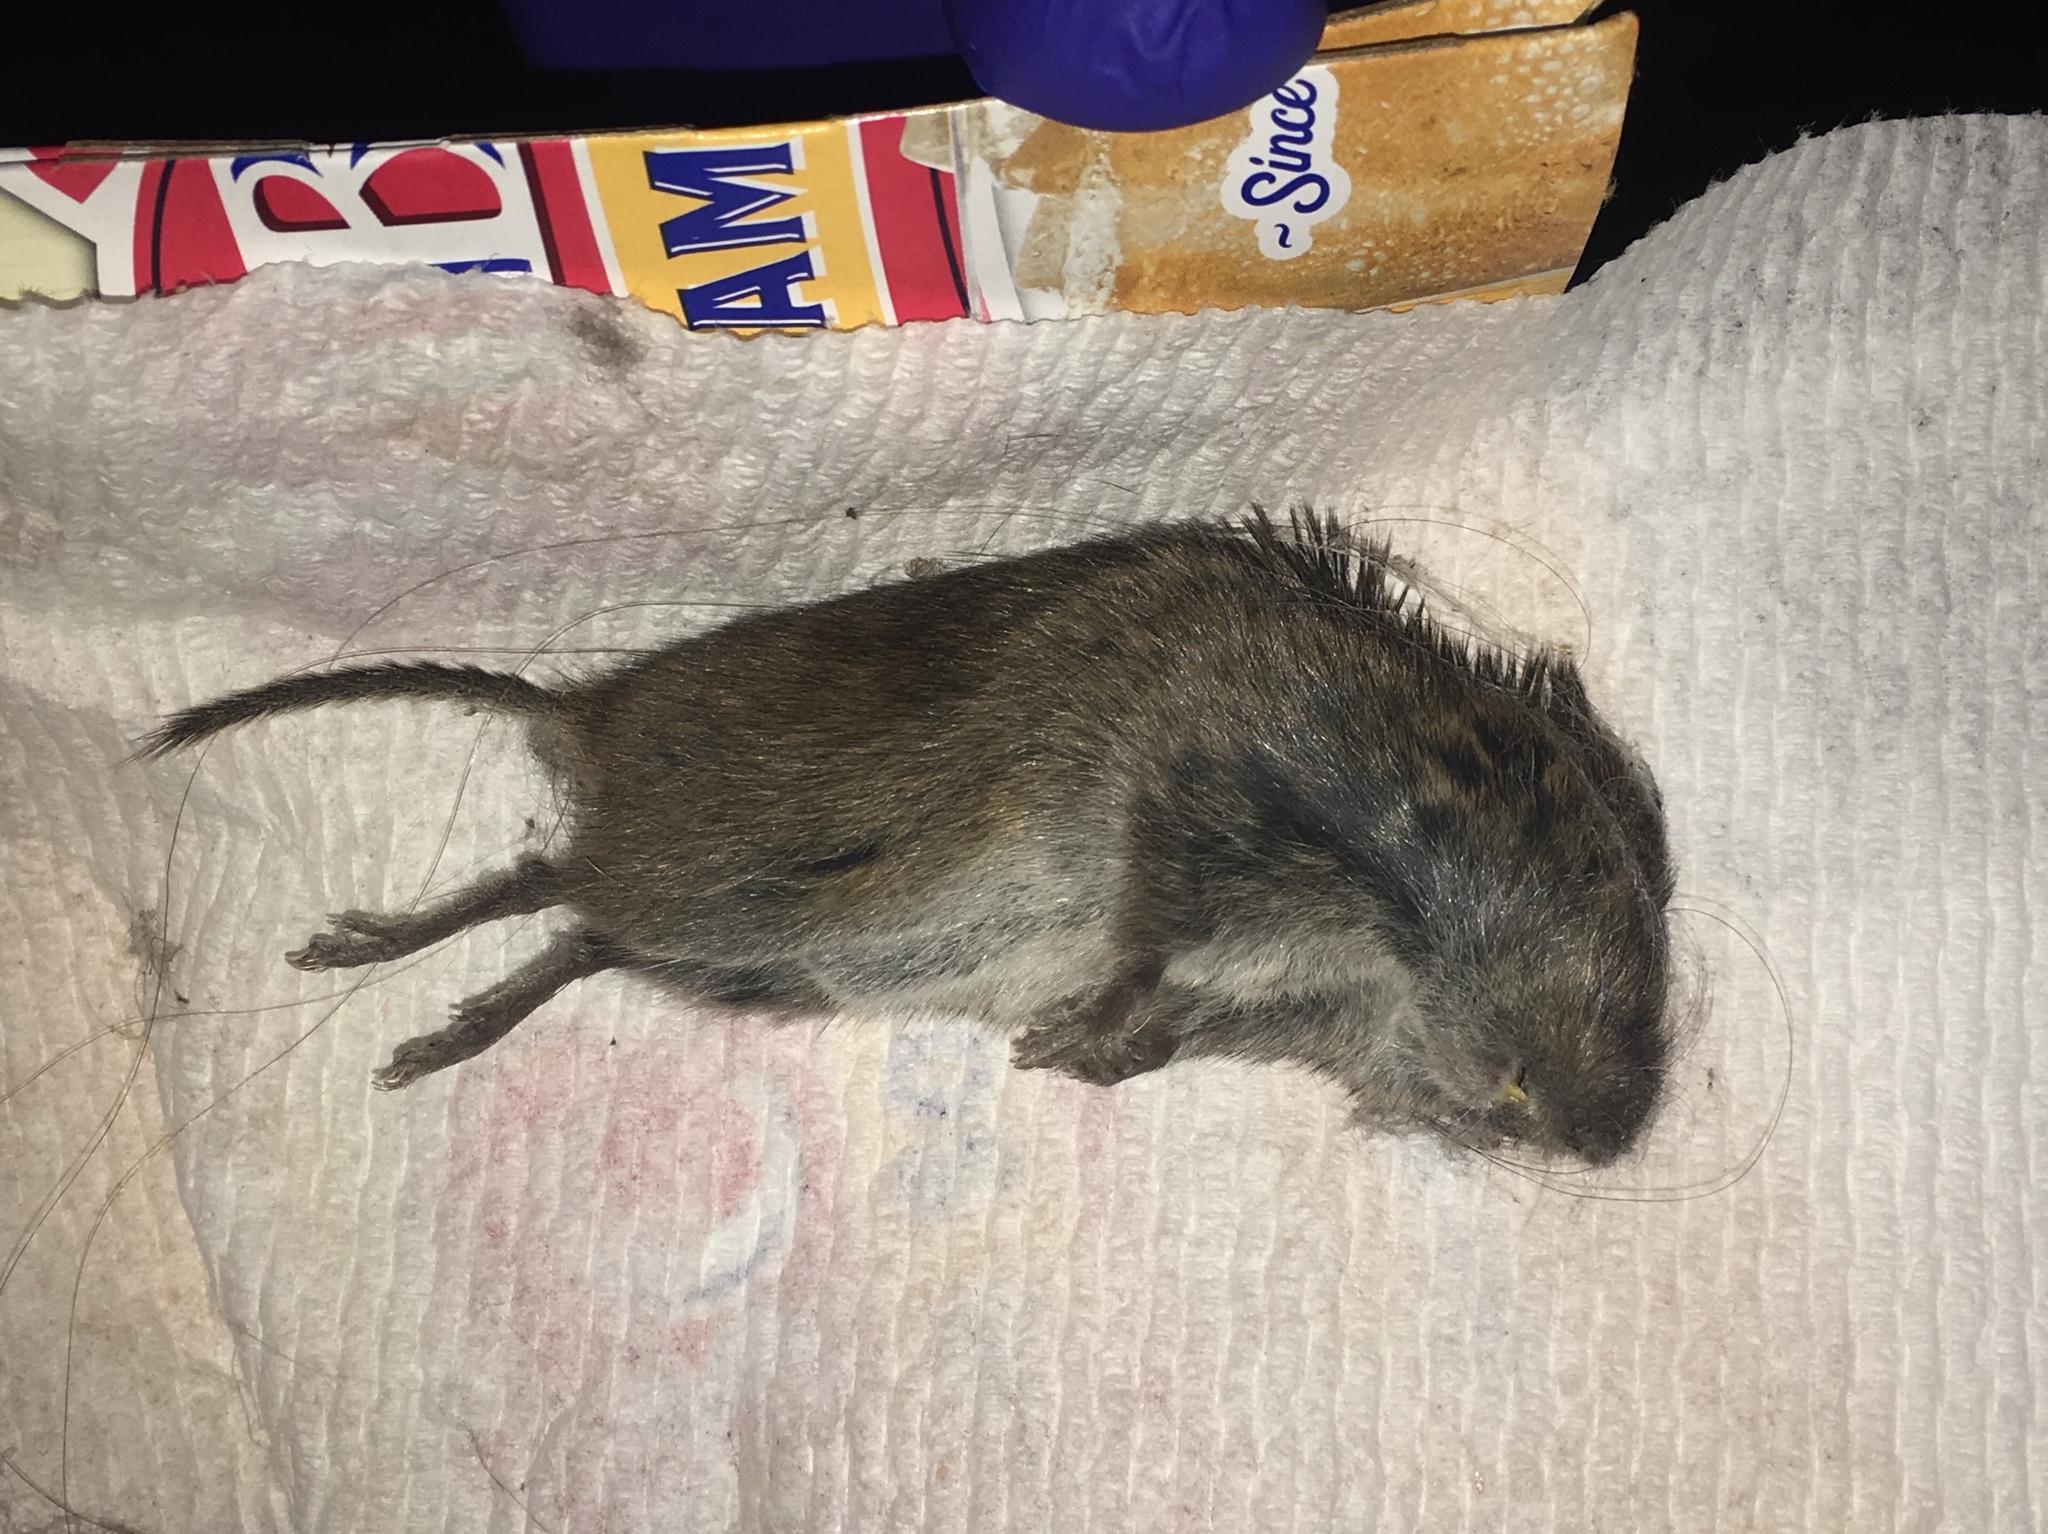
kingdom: Animalia
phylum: Chordata
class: Mammalia
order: Rodentia
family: Cricetidae
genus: Microtus
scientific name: Microtus pennsylvanicus
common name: Meadow vole
